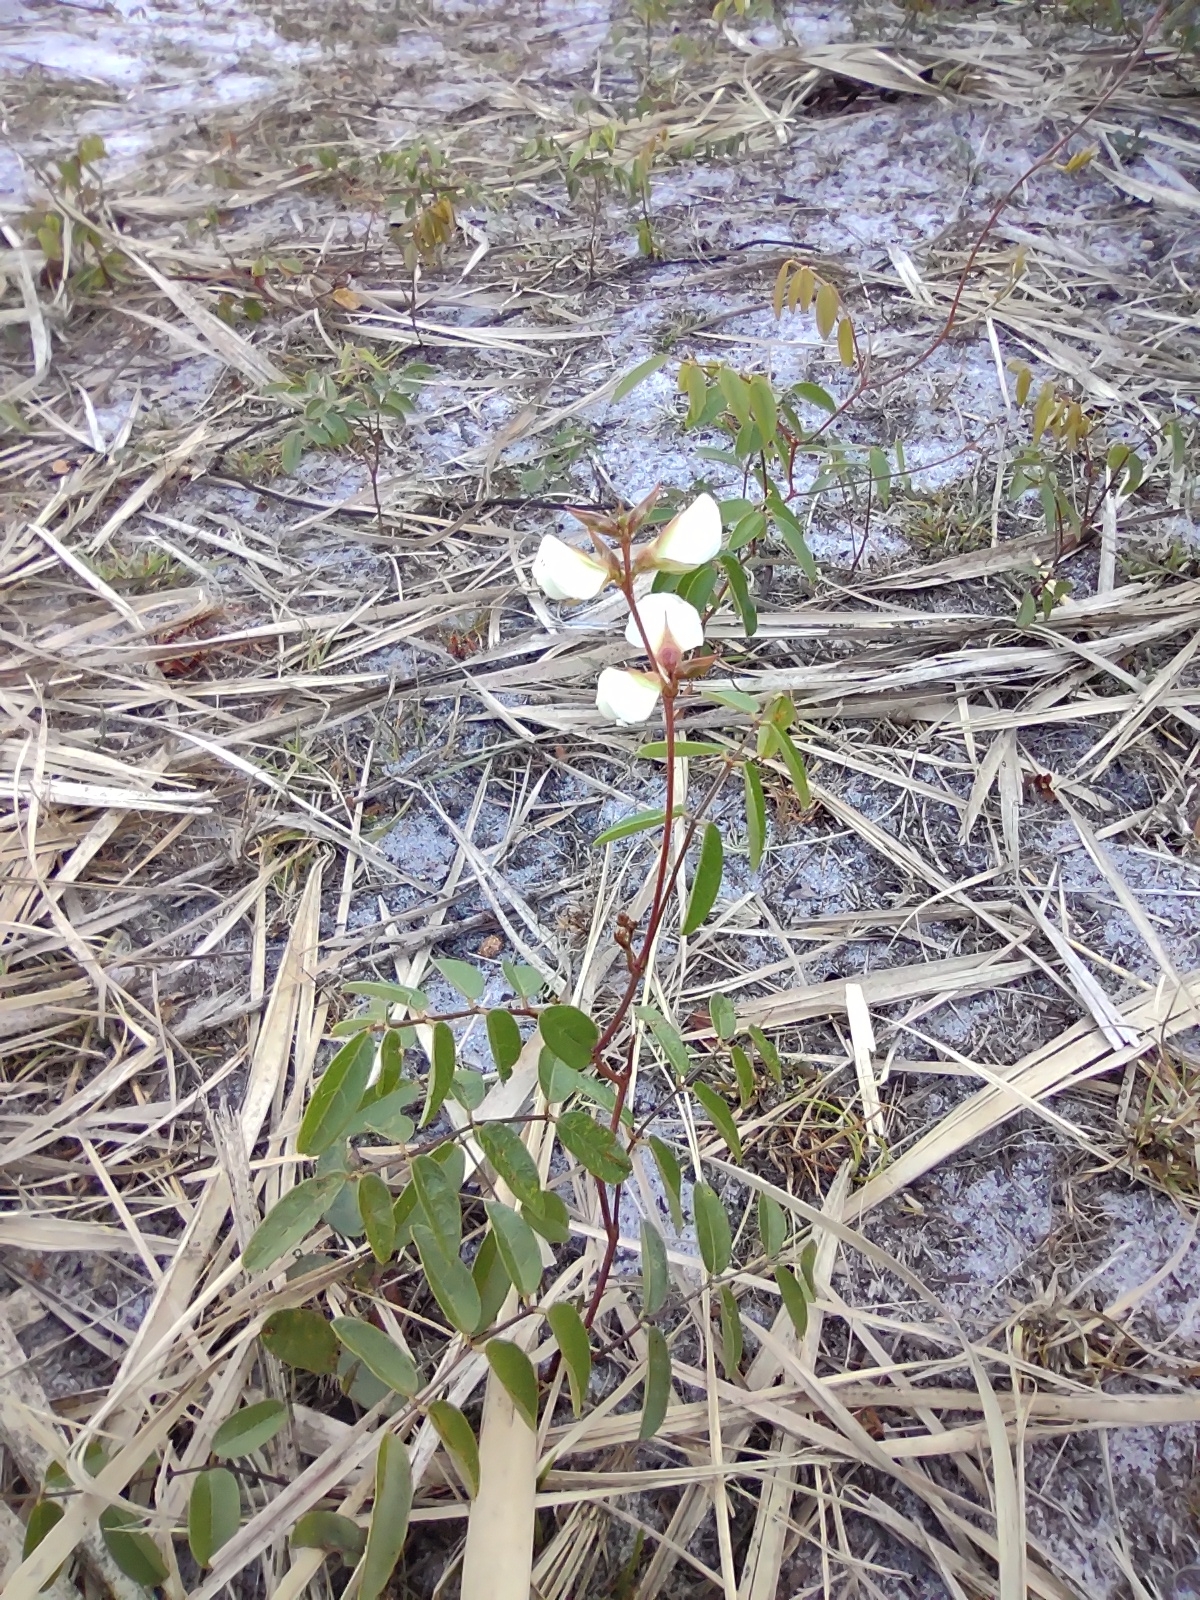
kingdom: Plantae
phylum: Tracheophyta
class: Magnoliopsida
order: Fabales
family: Fabaceae
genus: Galactia
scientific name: Galactia elliottii
